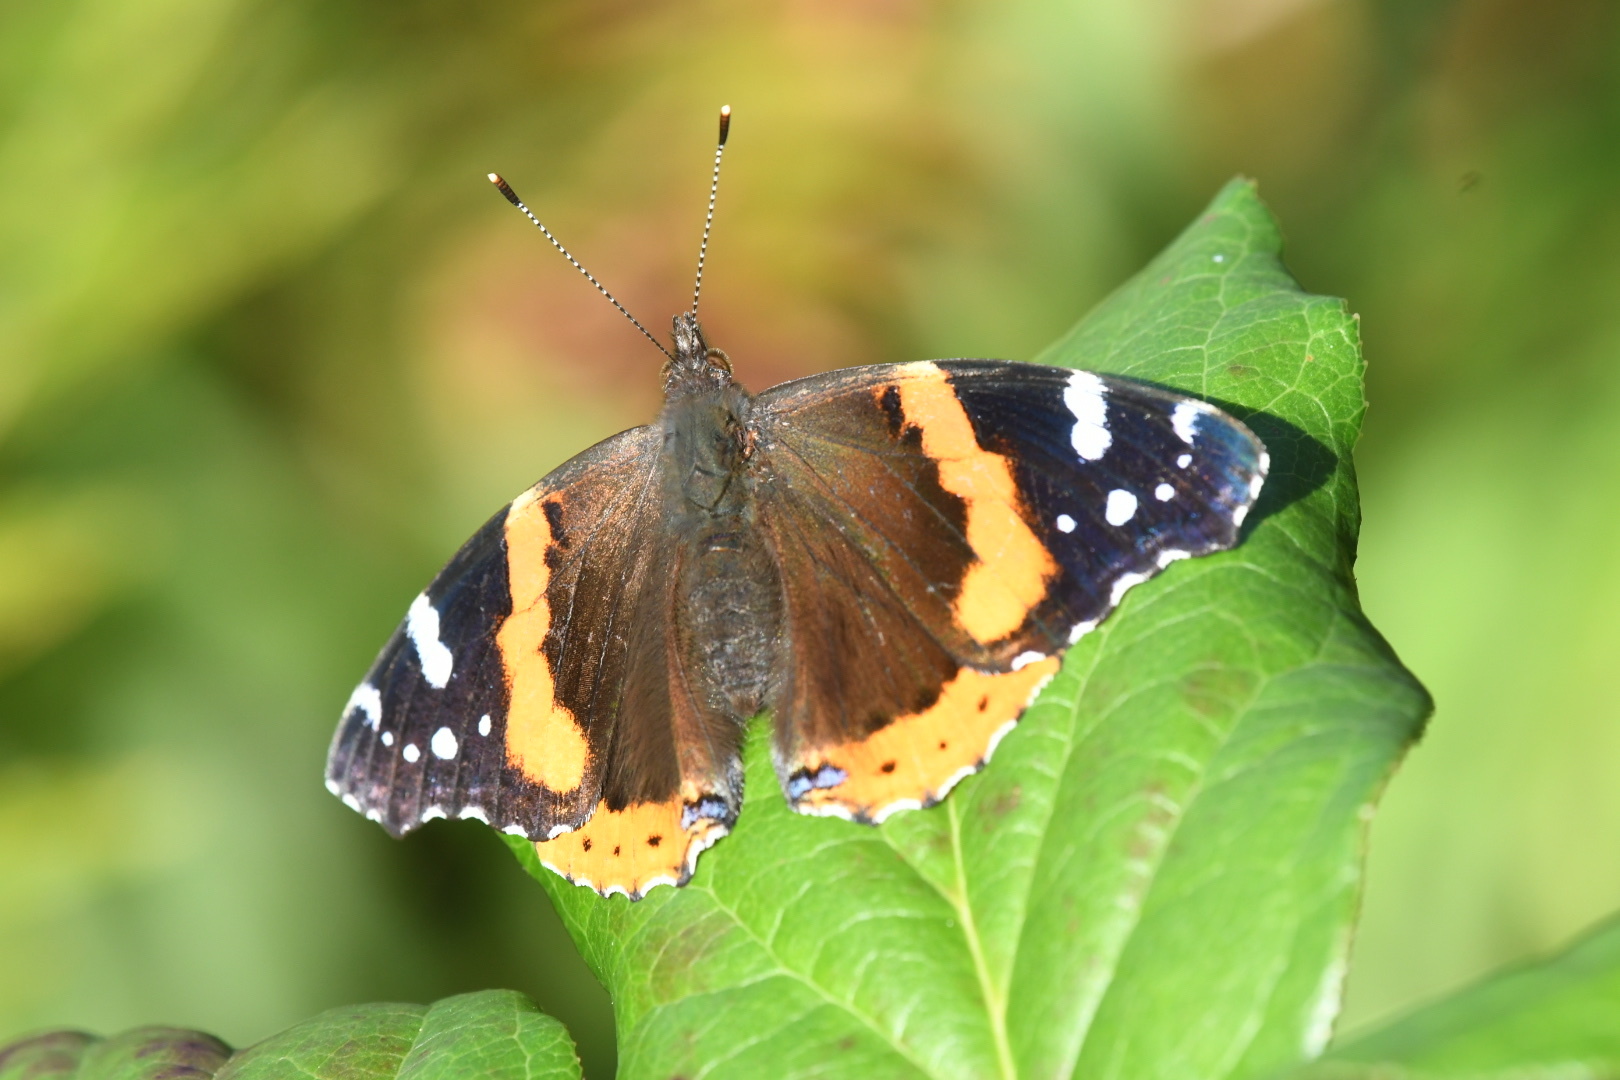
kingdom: Animalia
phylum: Arthropoda
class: Insecta
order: Lepidoptera
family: Nymphalidae
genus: Vanessa
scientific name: Vanessa atalanta
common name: Red admiral
